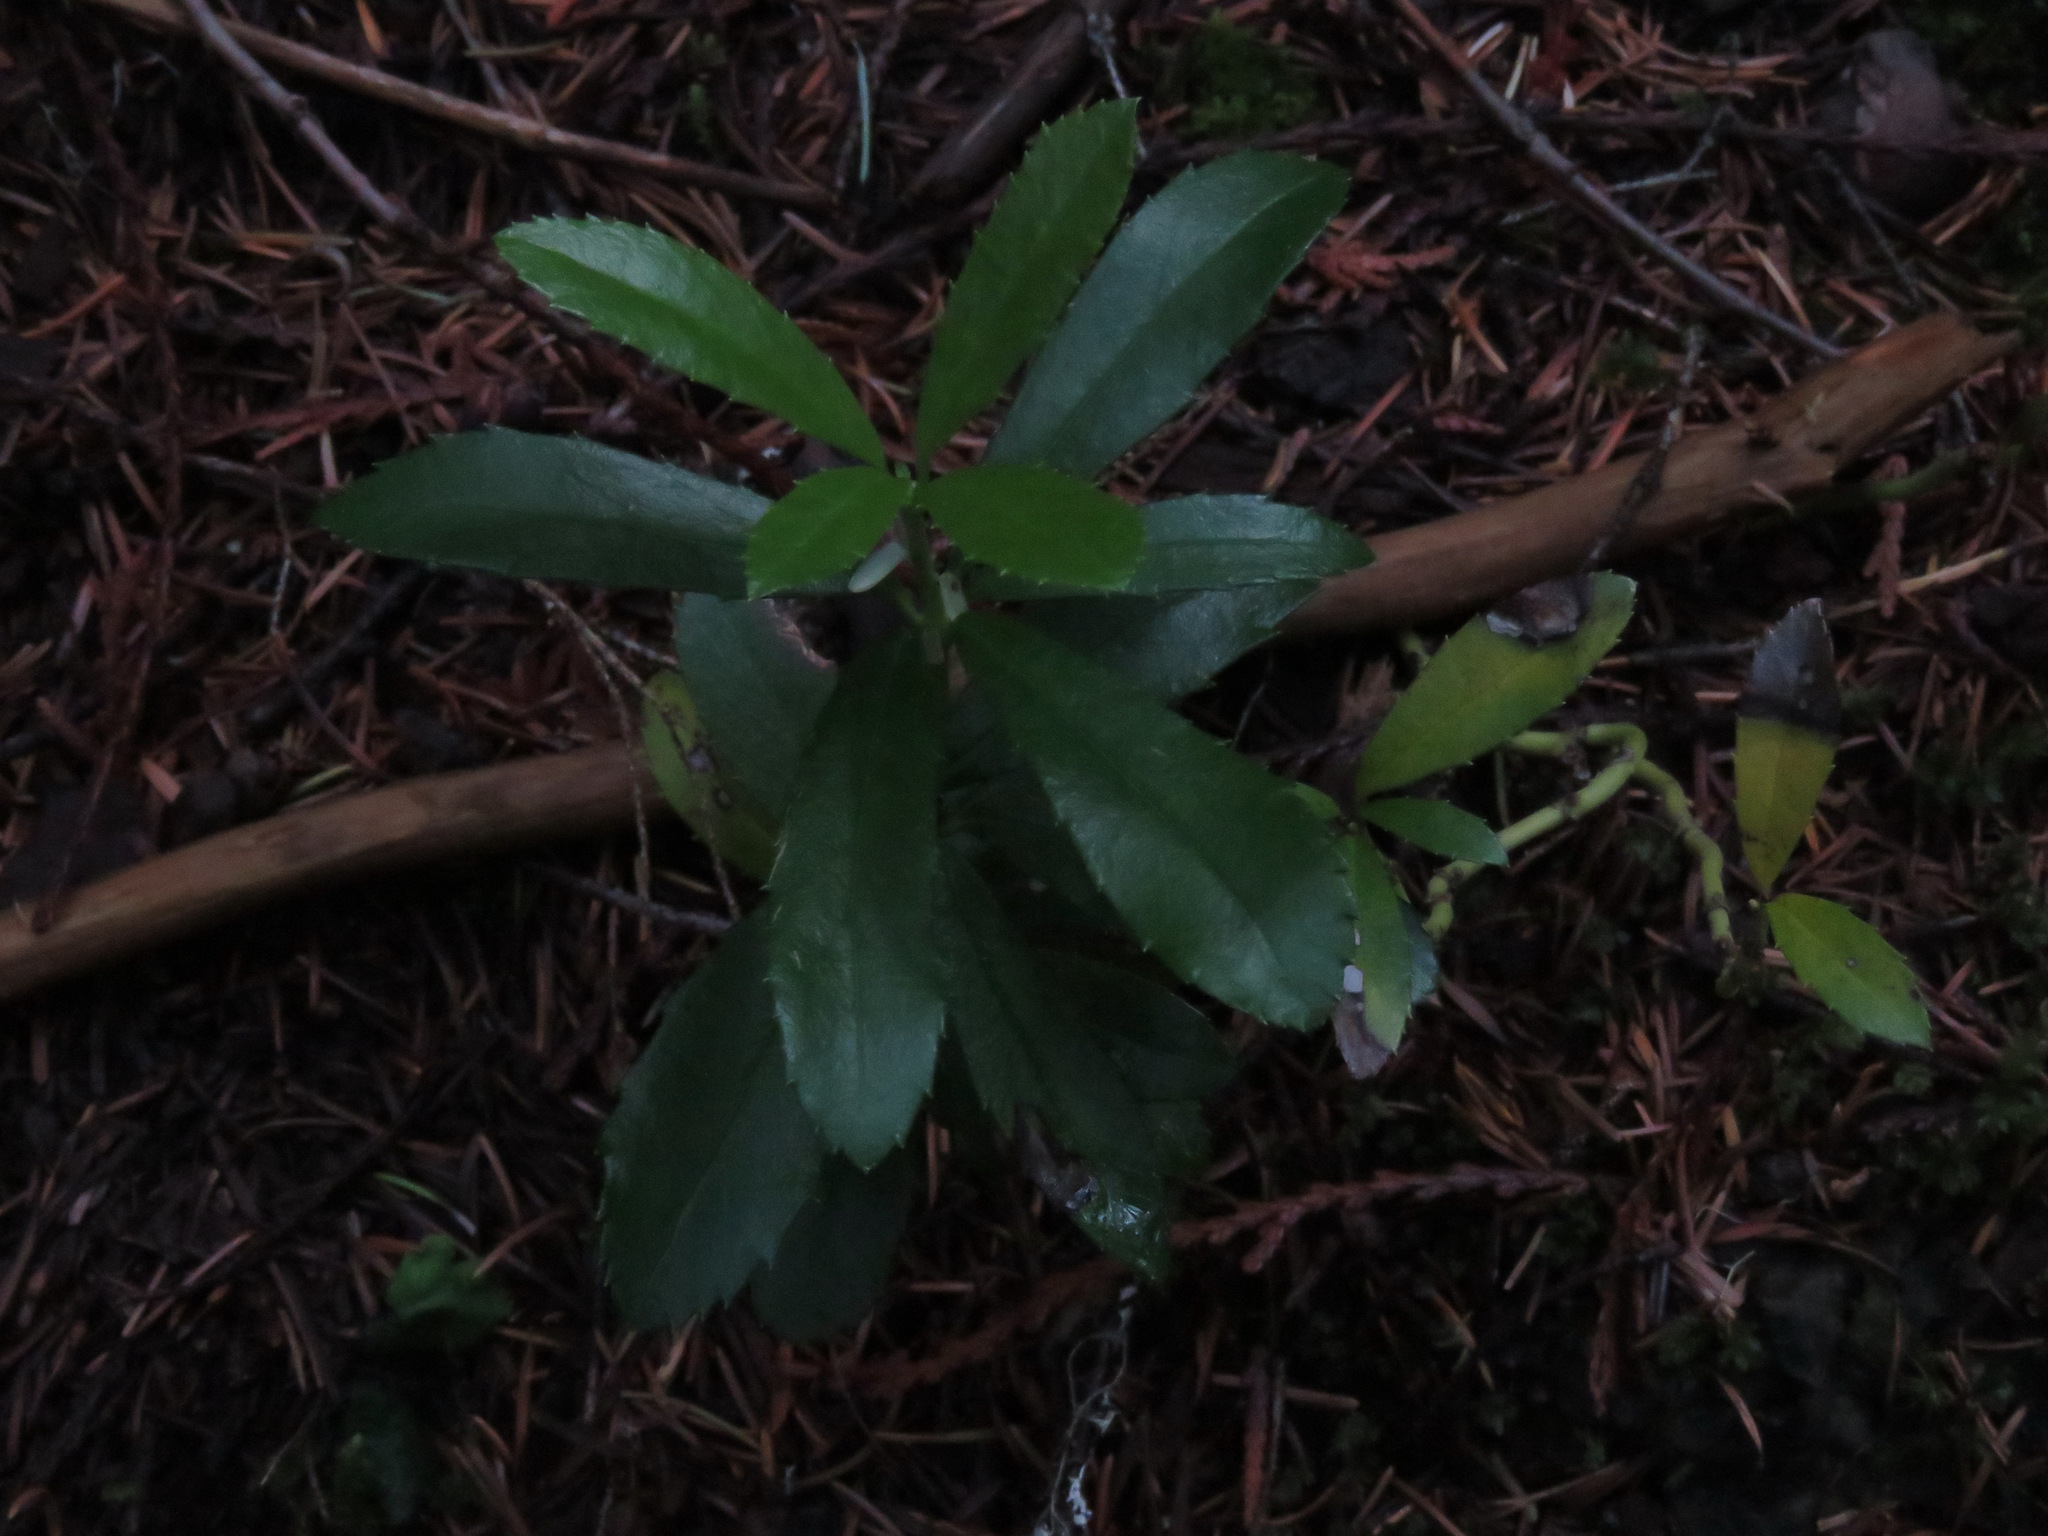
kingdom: Plantae
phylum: Tracheophyta
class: Magnoliopsida
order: Ericales
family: Ericaceae
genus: Chimaphila
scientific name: Chimaphila umbellata
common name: Pipsissewa
